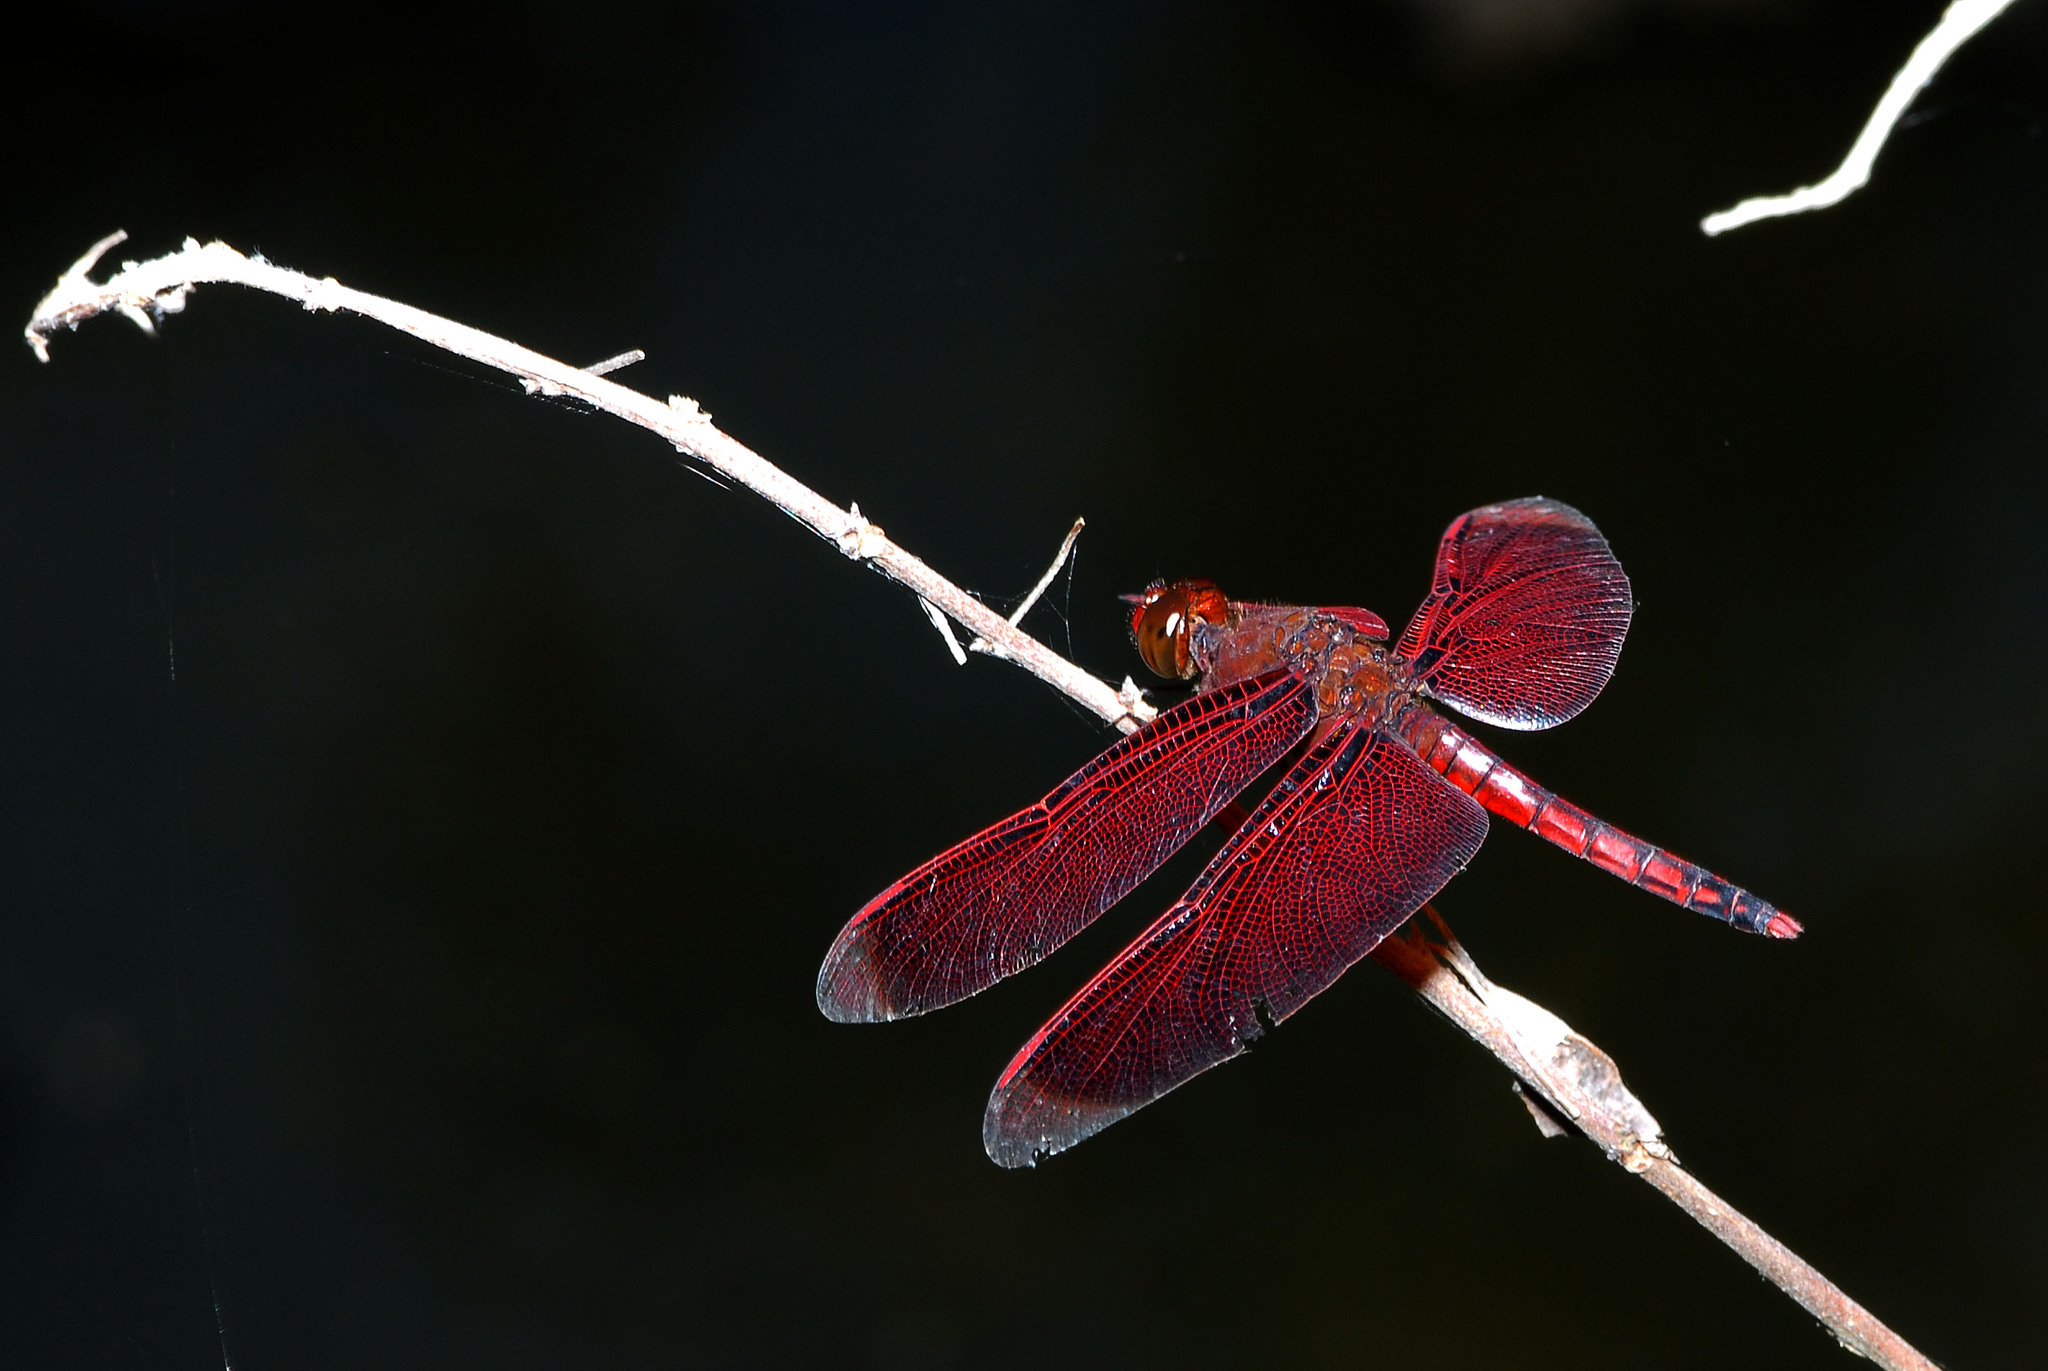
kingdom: Animalia
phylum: Arthropoda
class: Insecta
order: Odonata
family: Libellulidae
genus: Neurothemis
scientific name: Neurothemis taiwanensis
